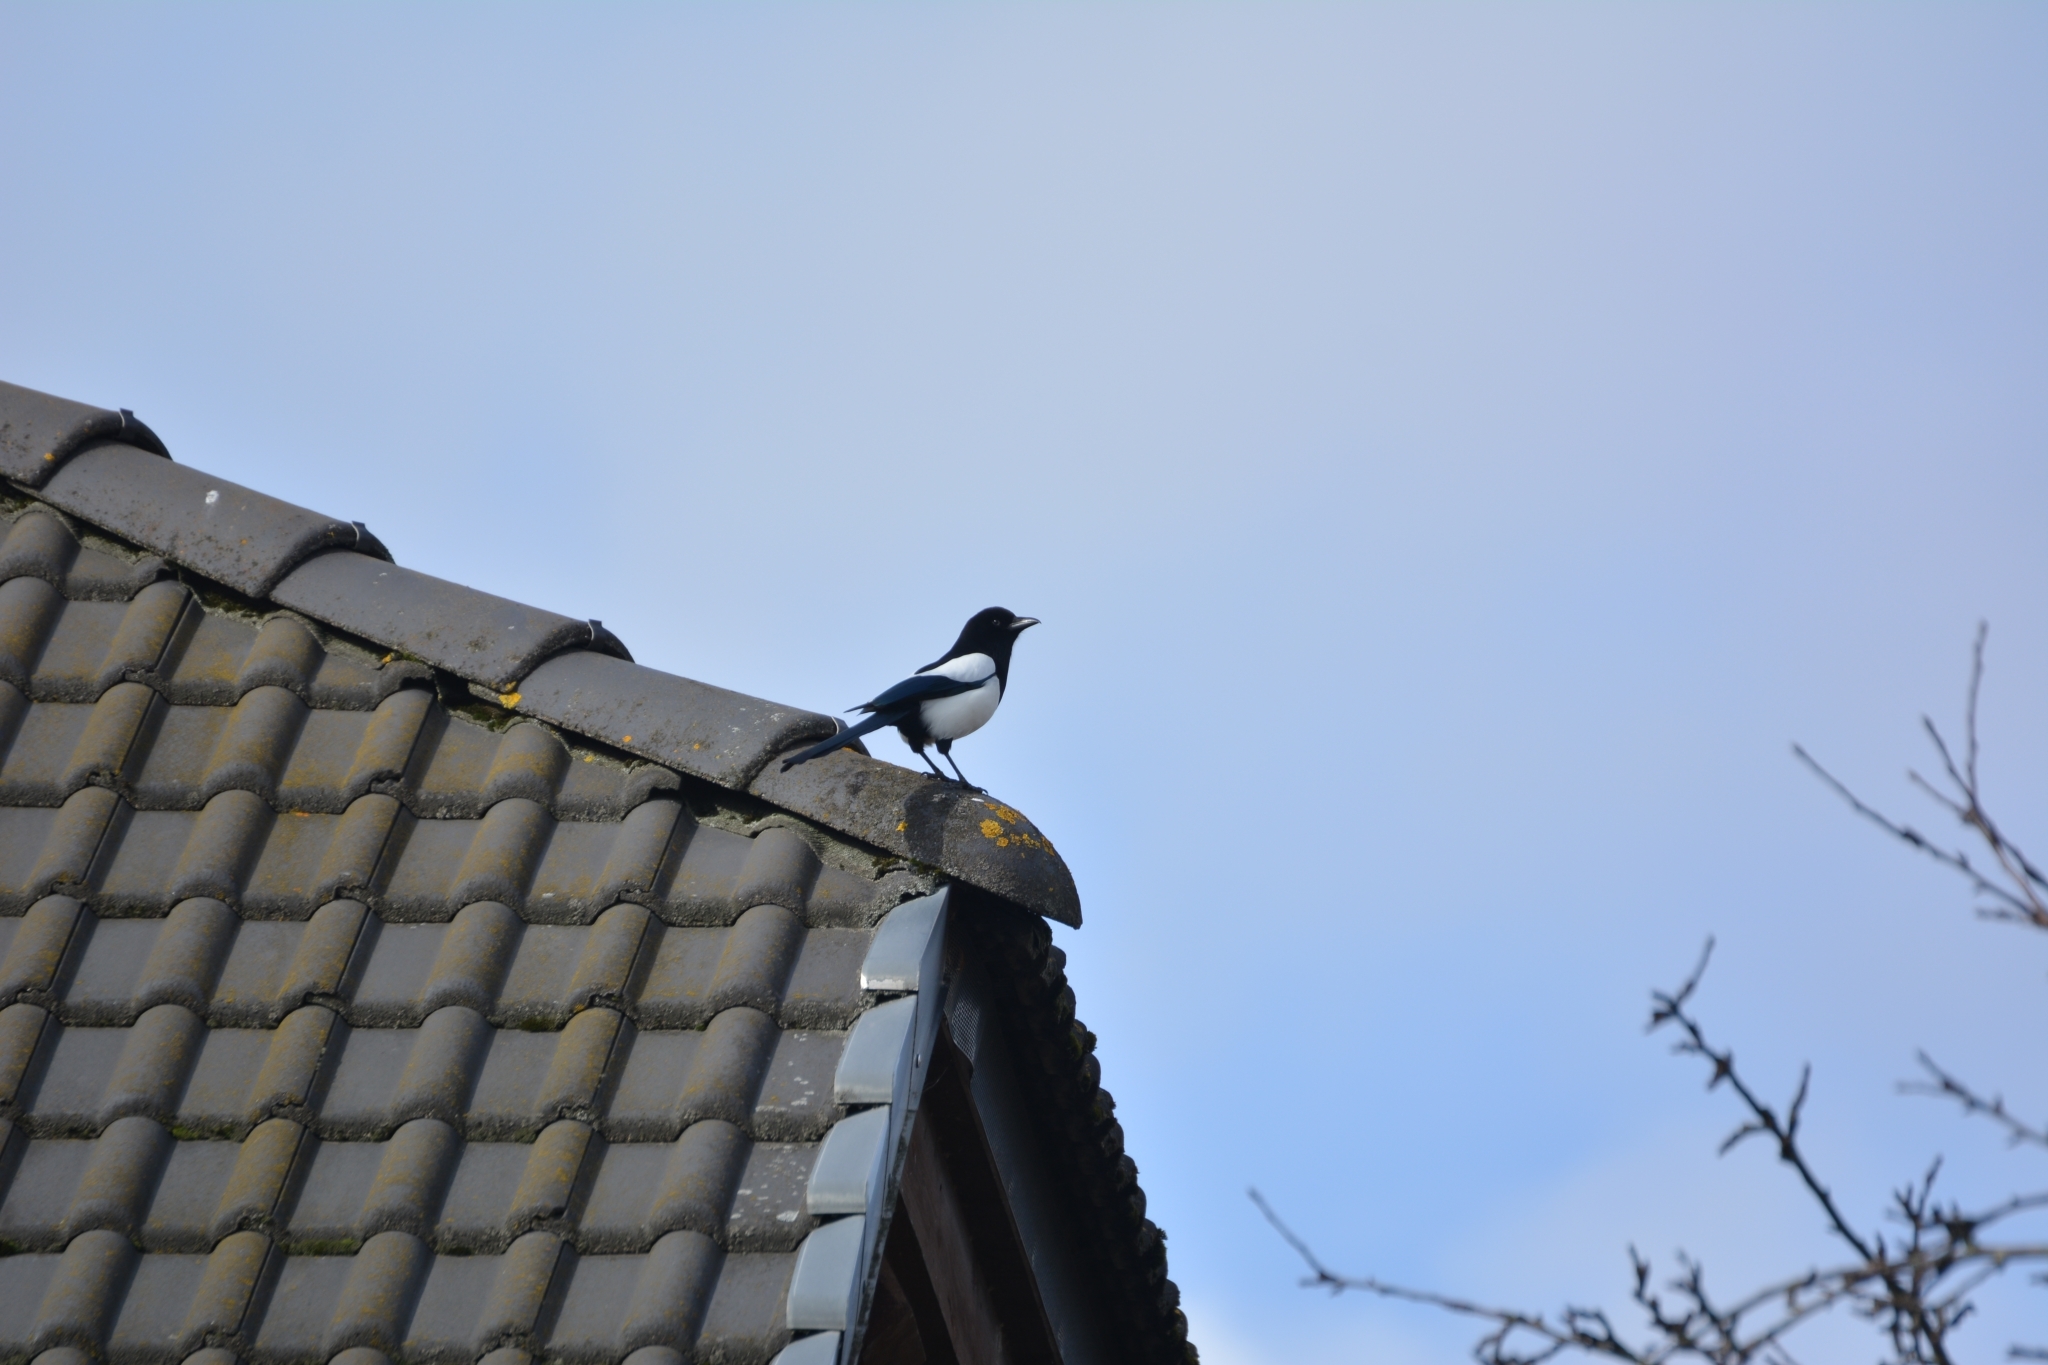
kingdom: Animalia
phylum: Chordata
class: Aves
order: Passeriformes
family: Corvidae
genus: Pica
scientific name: Pica pica
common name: Eurasian magpie
